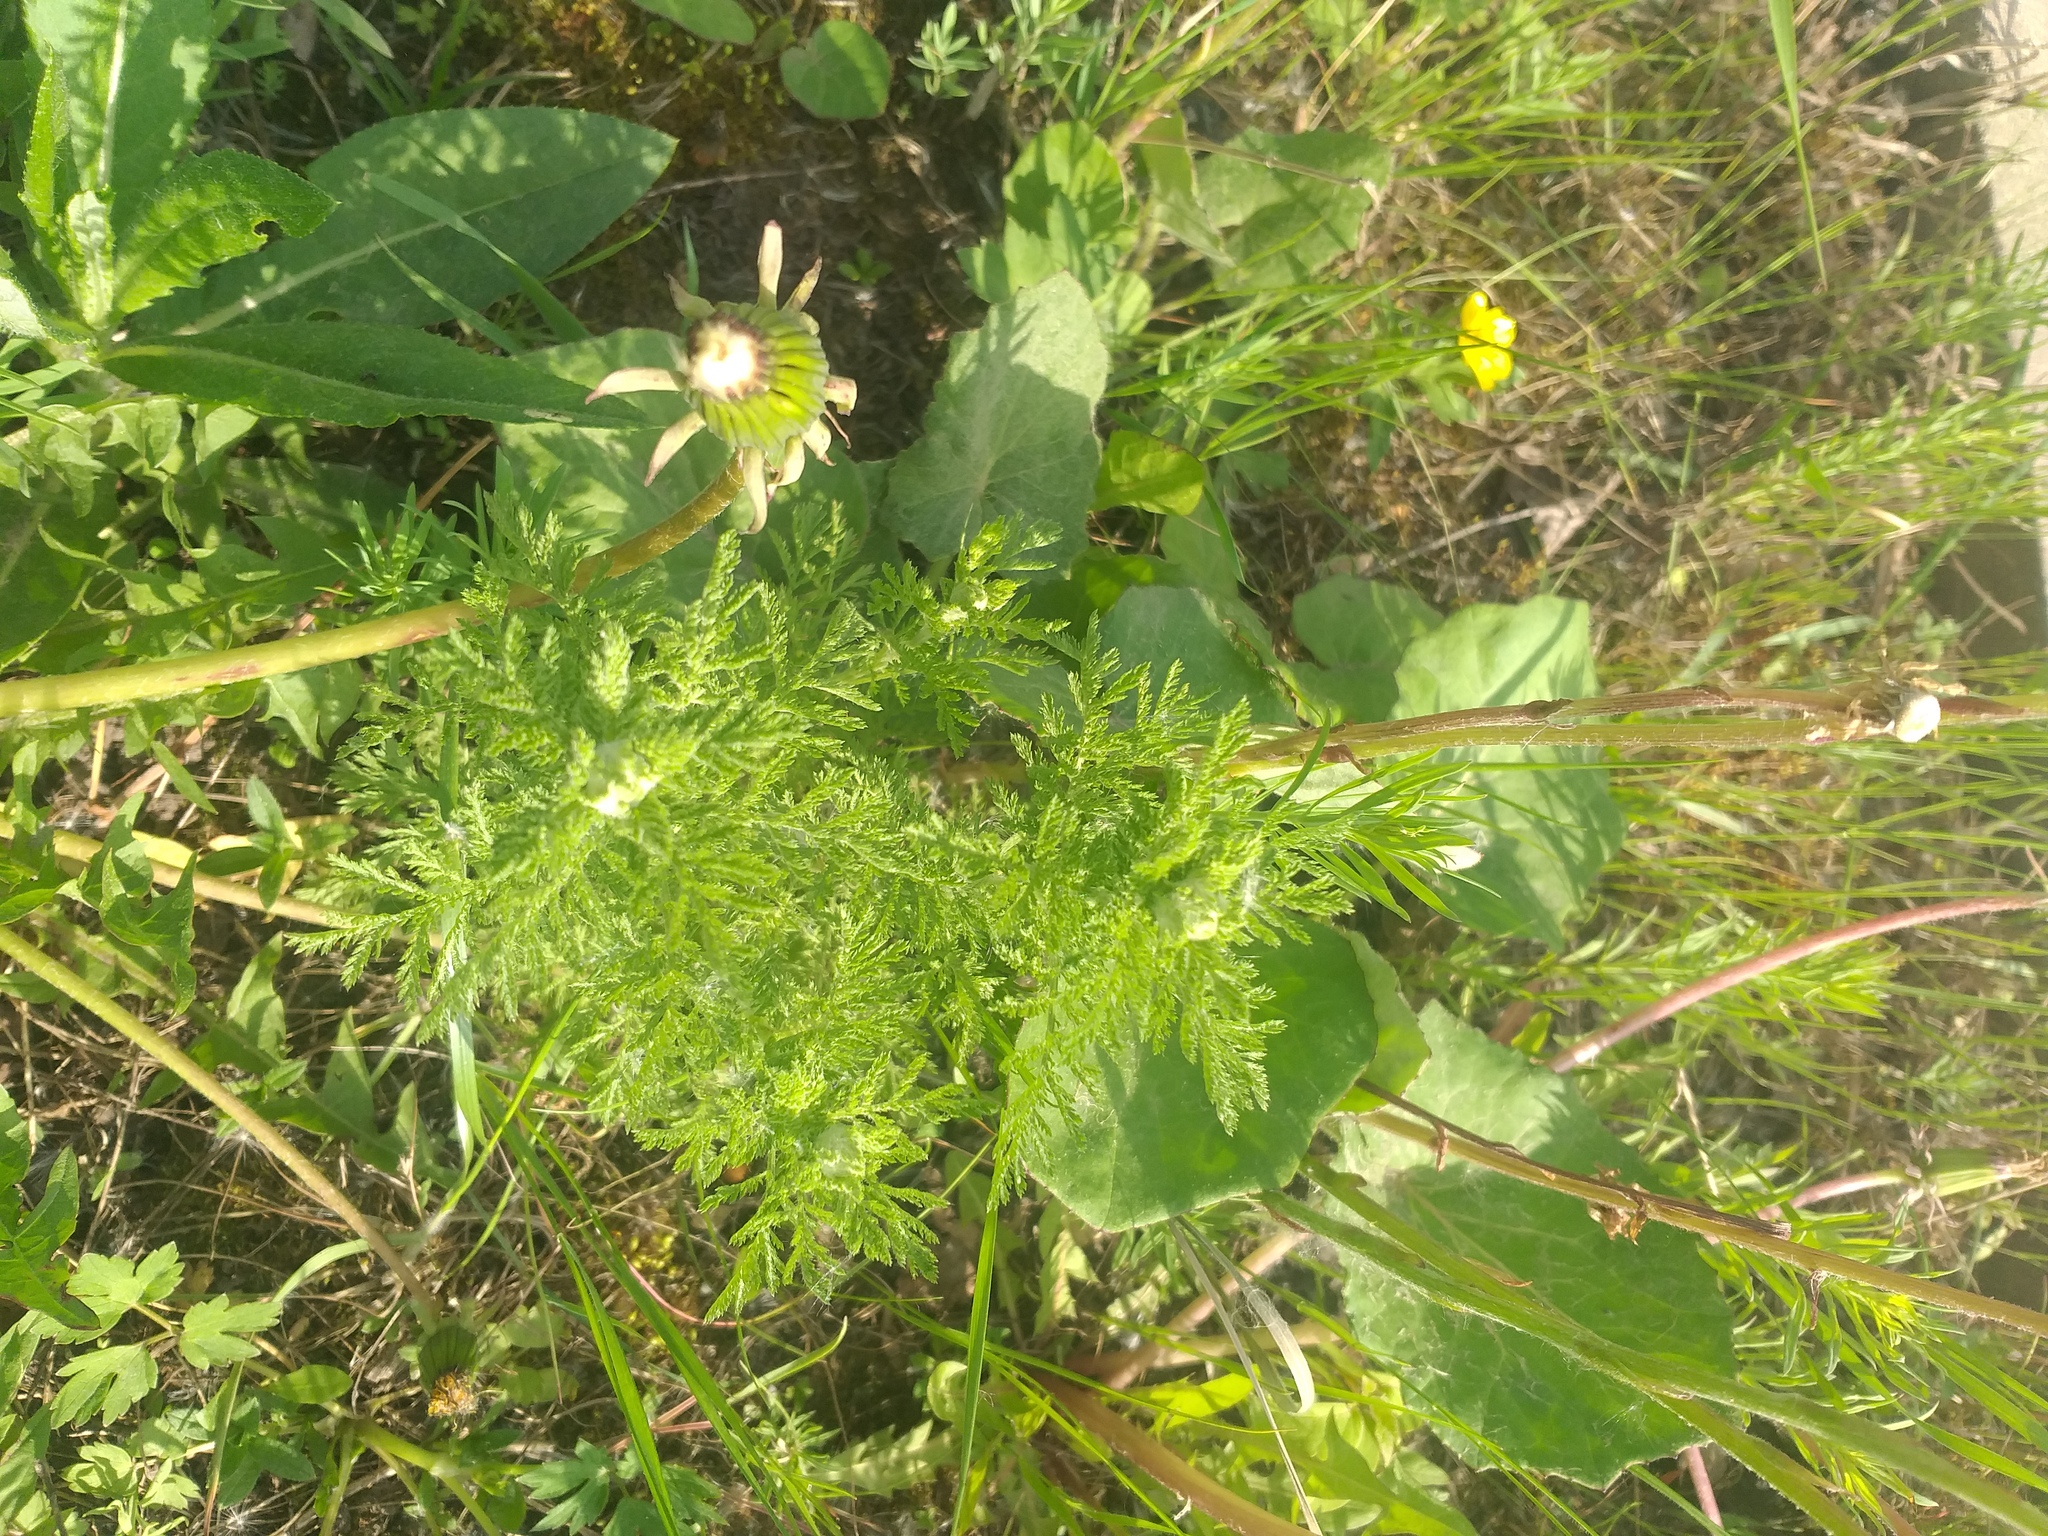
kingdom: Plantae
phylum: Tracheophyta
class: Magnoliopsida
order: Asterales
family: Asteraceae
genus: Achillea
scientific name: Achillea nobilis
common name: Noble yarrow
